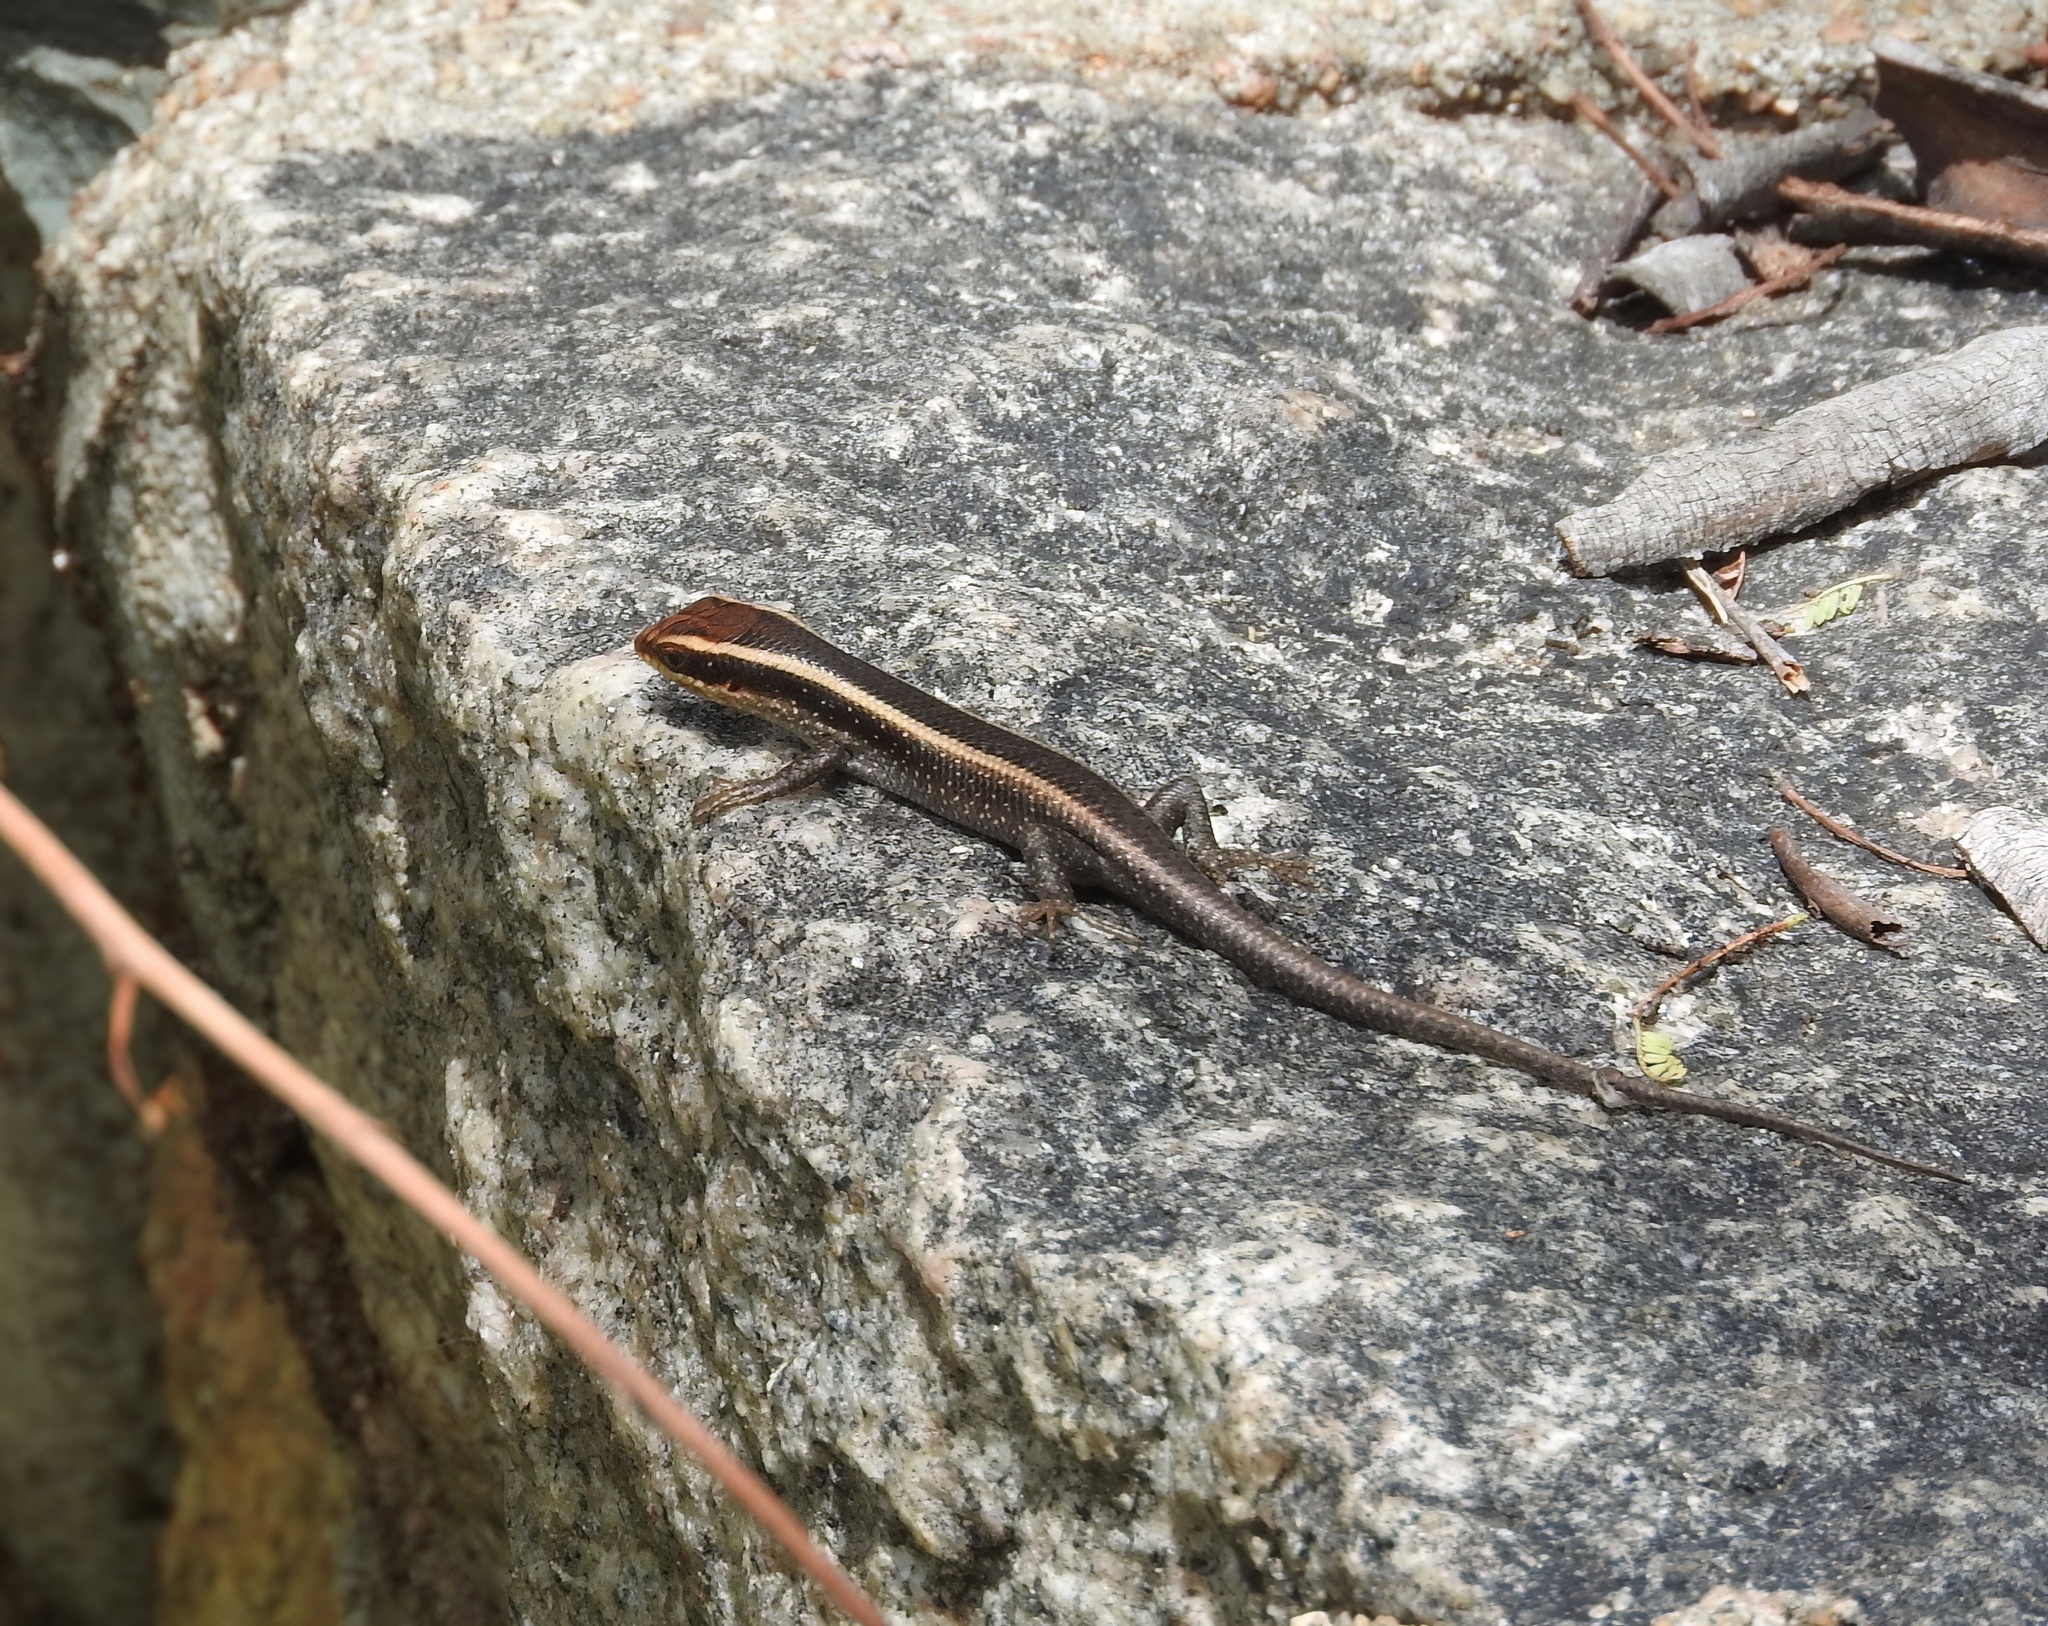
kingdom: Animalia
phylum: Chordata
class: Squamata
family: Scincidae
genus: Trachylepis
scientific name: Trachylepis striata
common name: African striped mabuya
